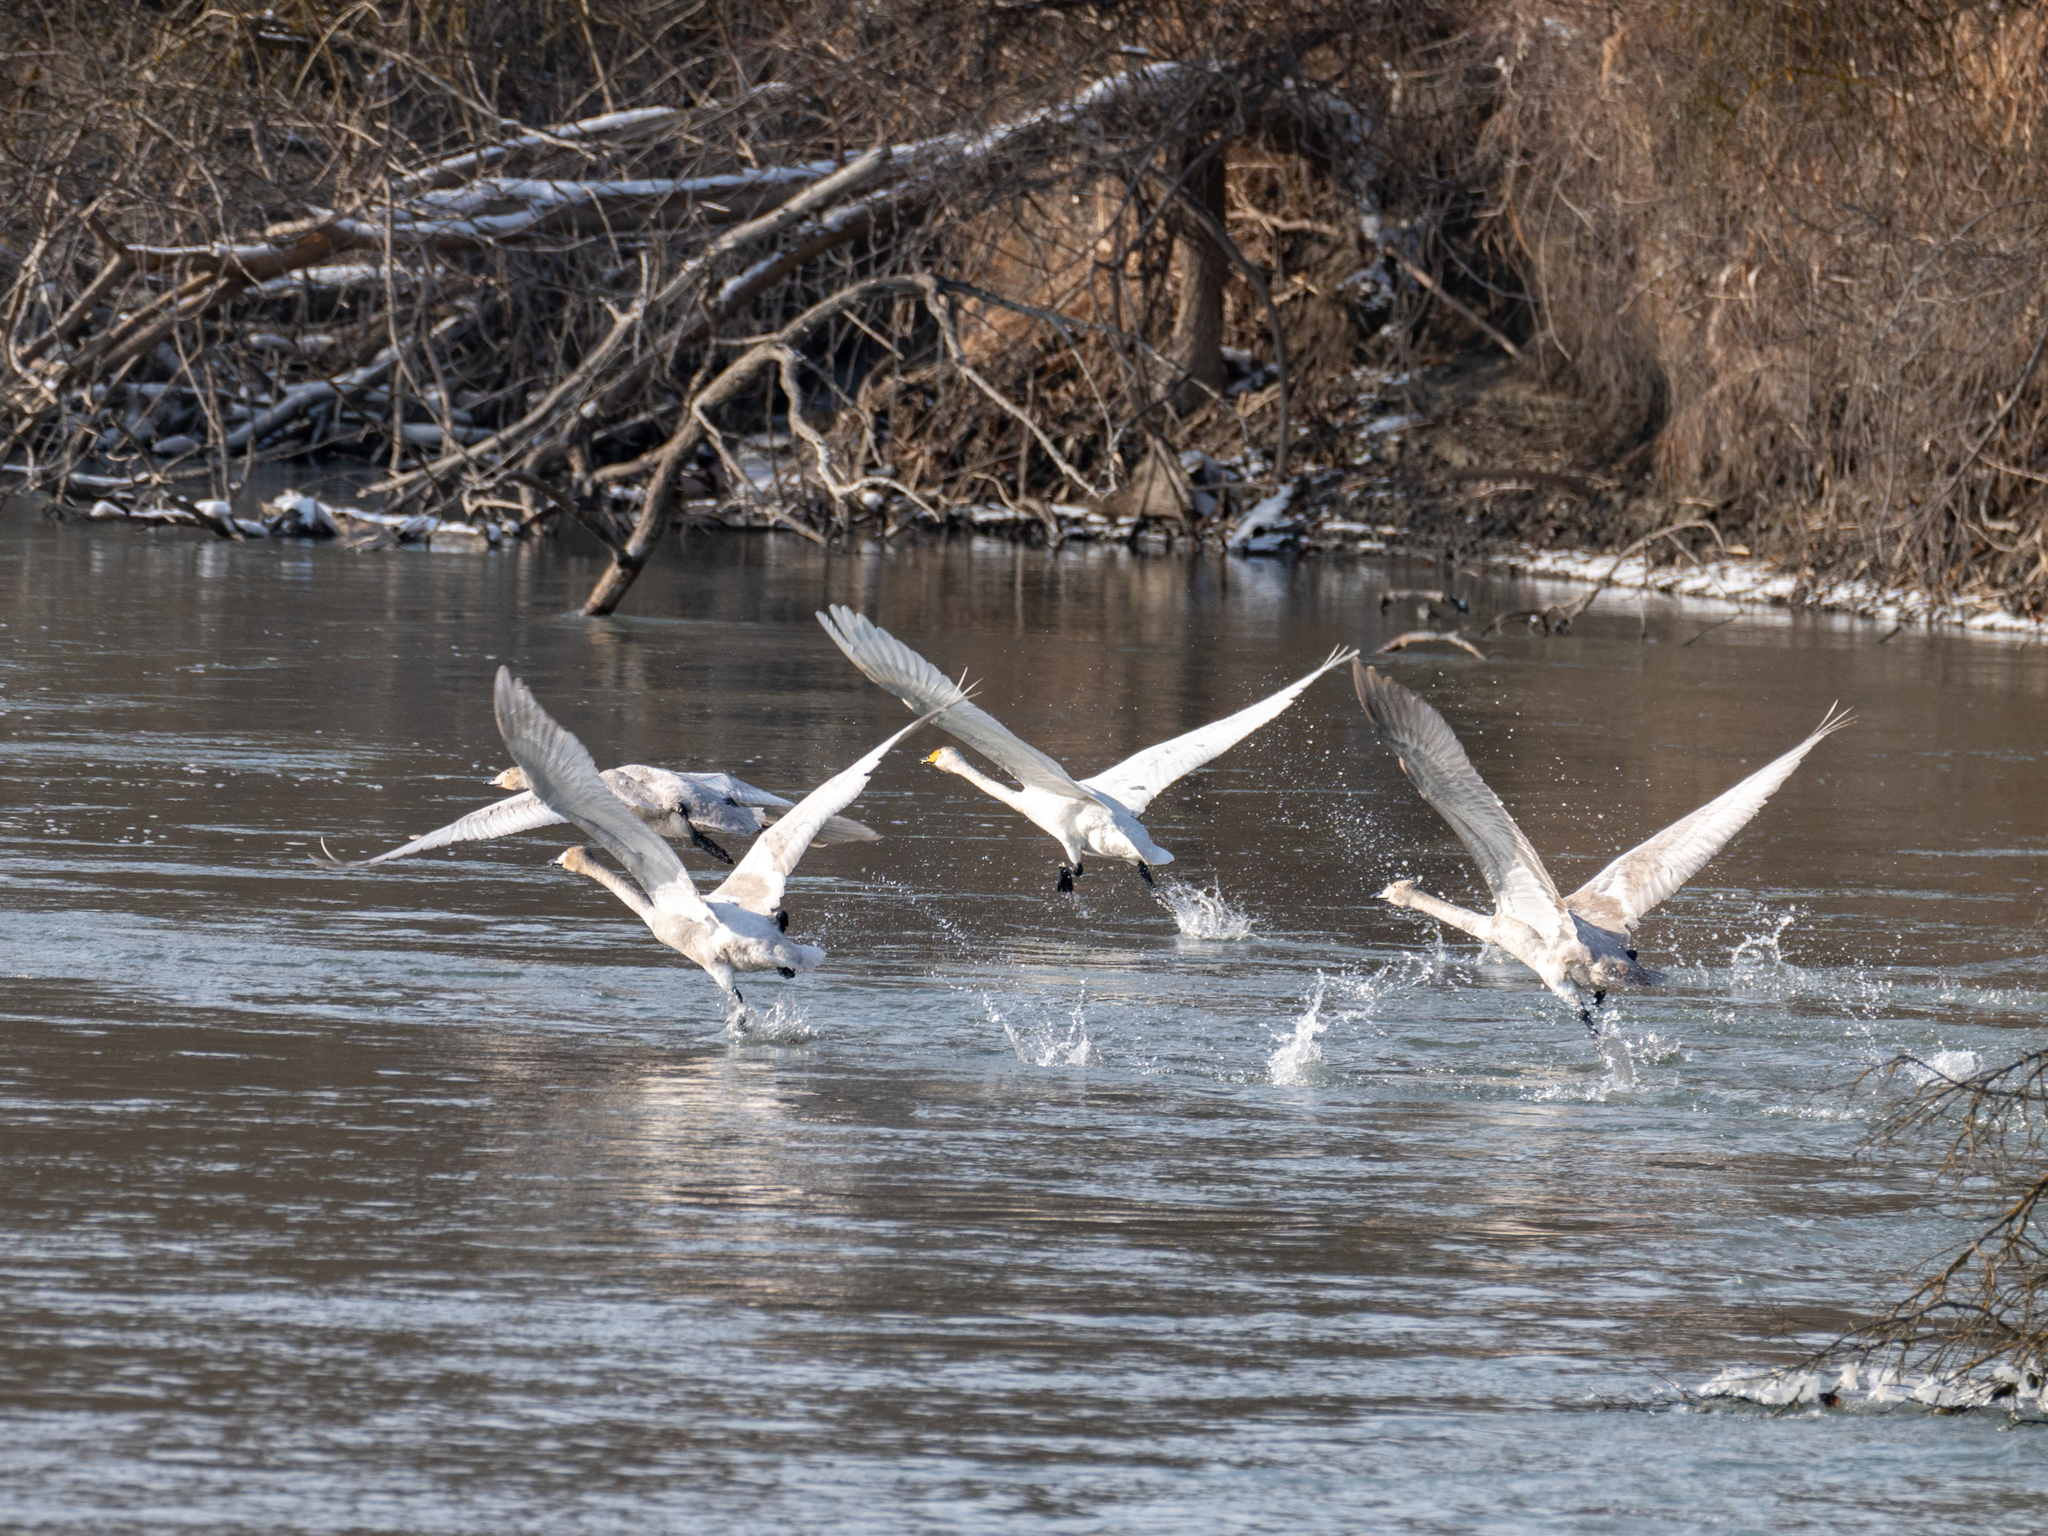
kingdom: Animalia
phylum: Chordata
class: Aves
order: Anseriformes
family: Anatidae
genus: Cygnus
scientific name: Cygnus cygnus
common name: Whooper swan
